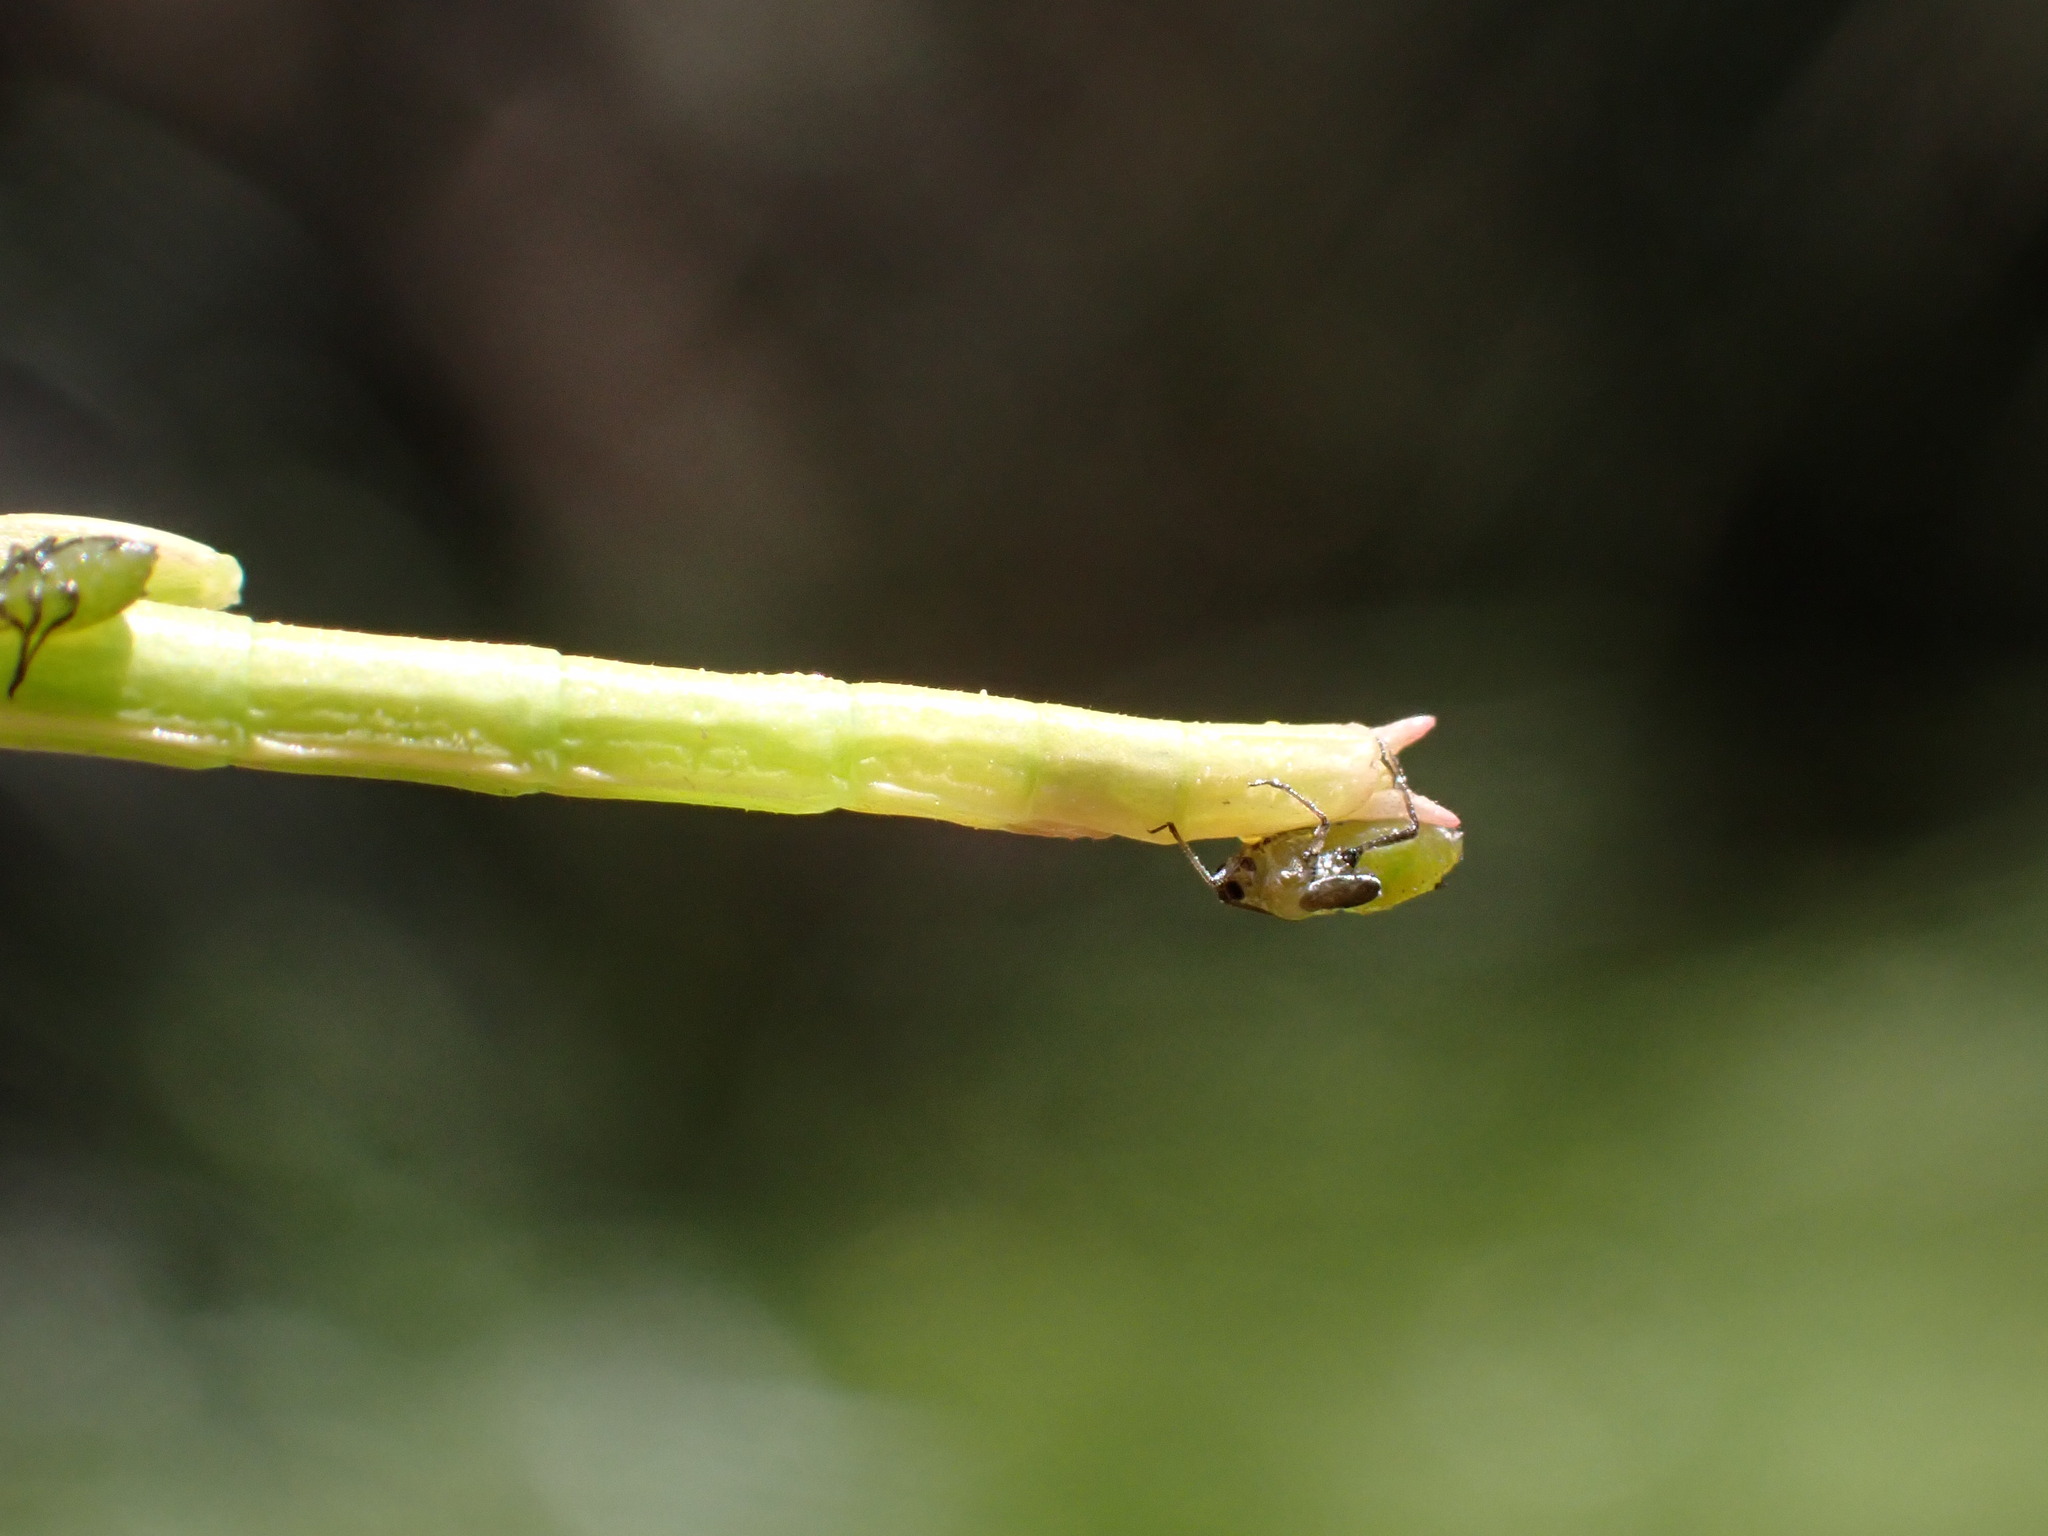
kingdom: Animalia
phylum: Arthropoda
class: Insecta
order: Phasmida
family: Bacillidae
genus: Clonopsis
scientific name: Clonopsis gallica
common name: French stick insect
